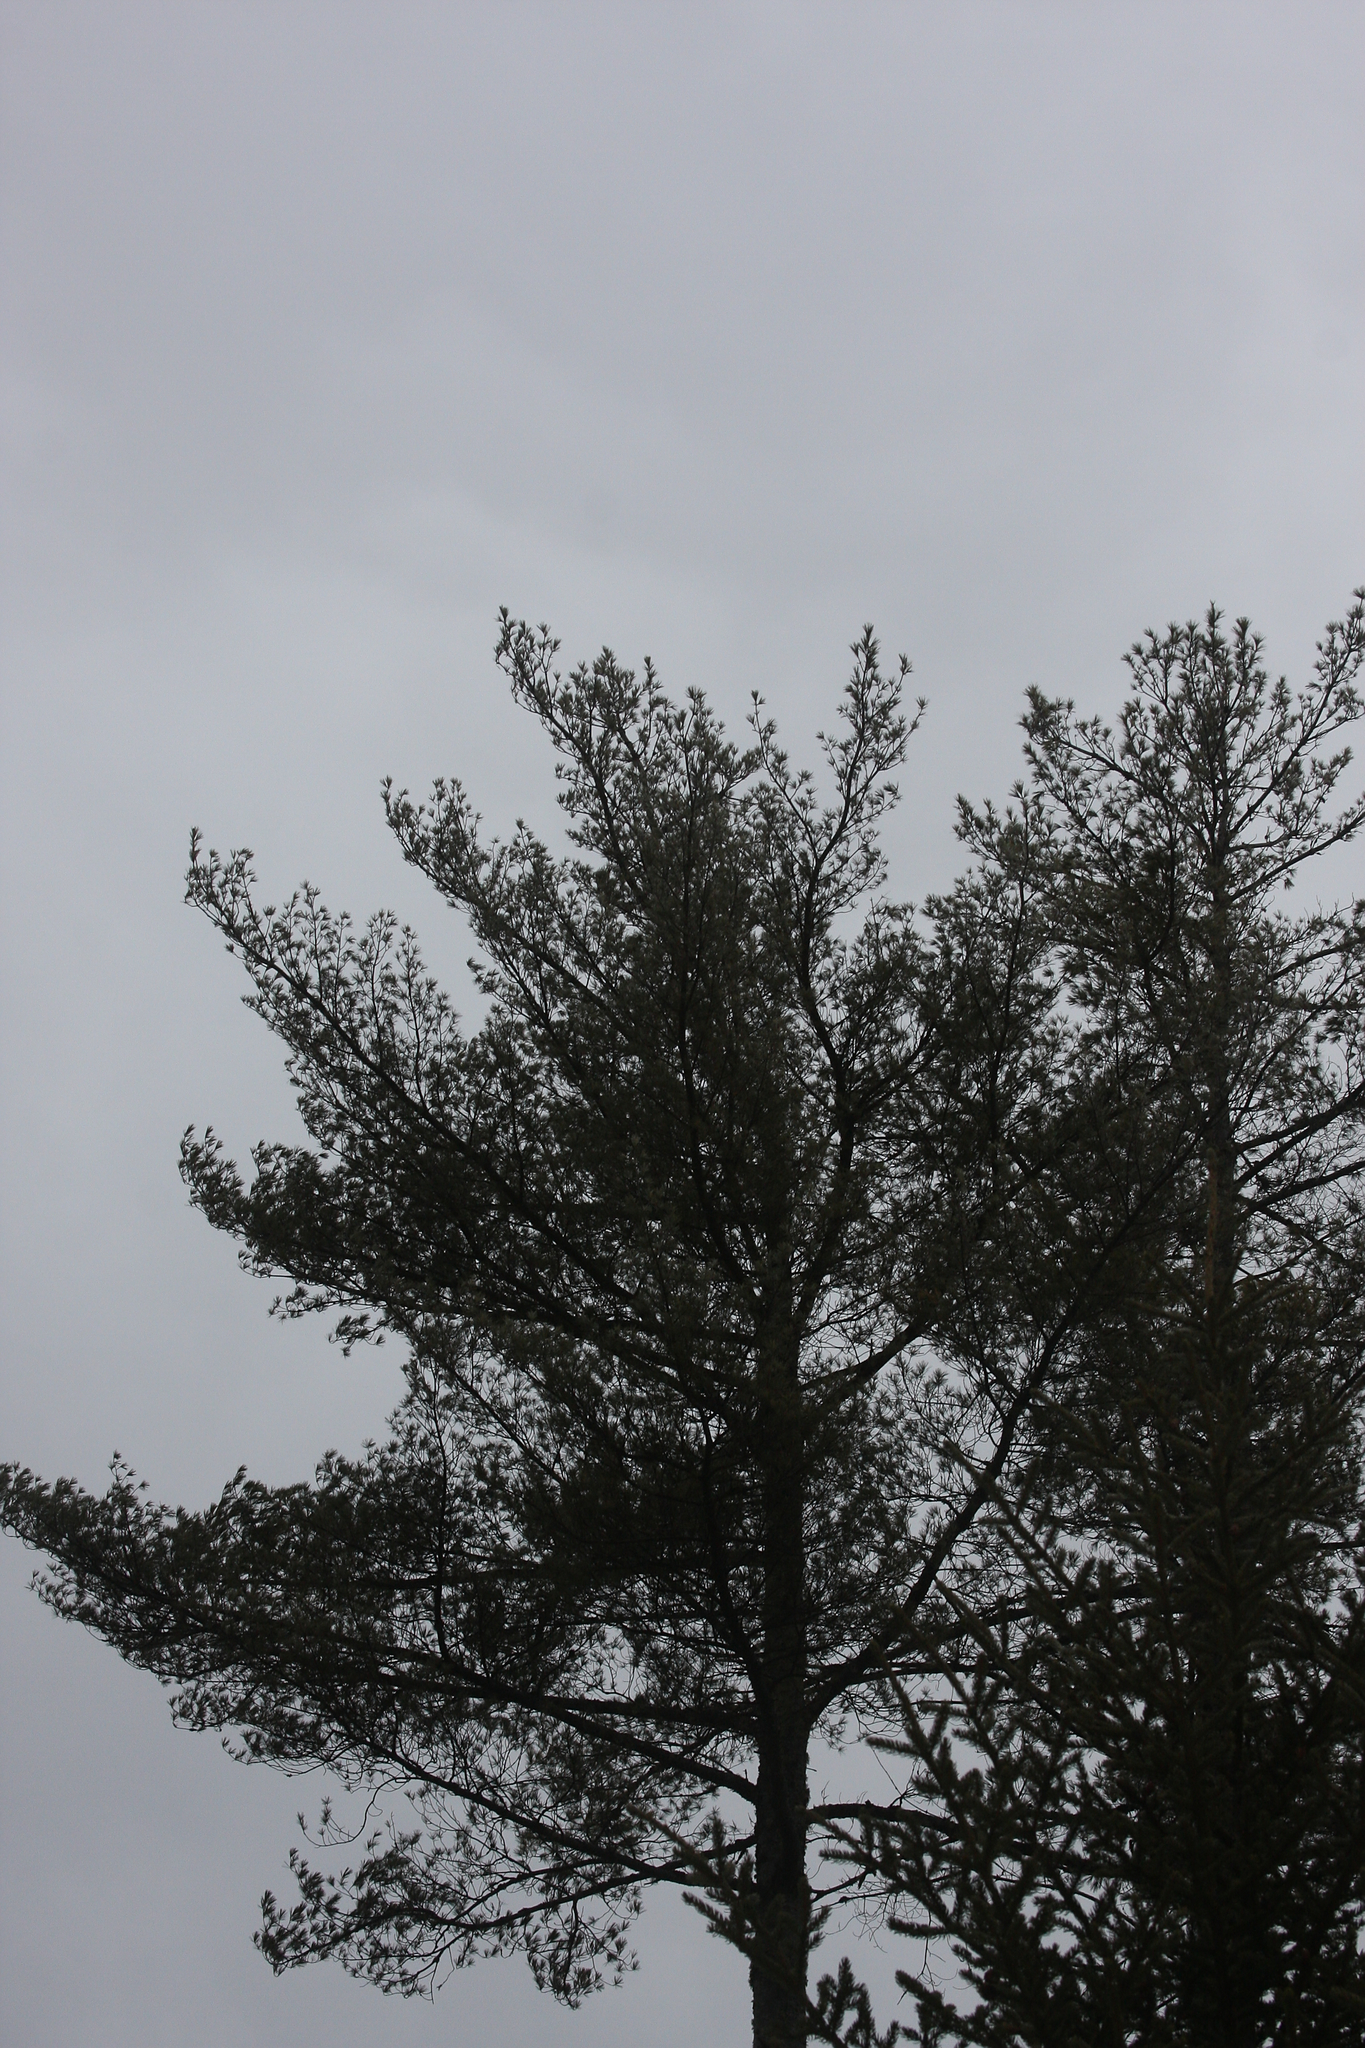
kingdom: Plantae
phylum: Tracheophyta
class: Pinopsida
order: Pinales
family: Pinaceae
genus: Pinus
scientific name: Pinus strobus
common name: Weymouth pine
